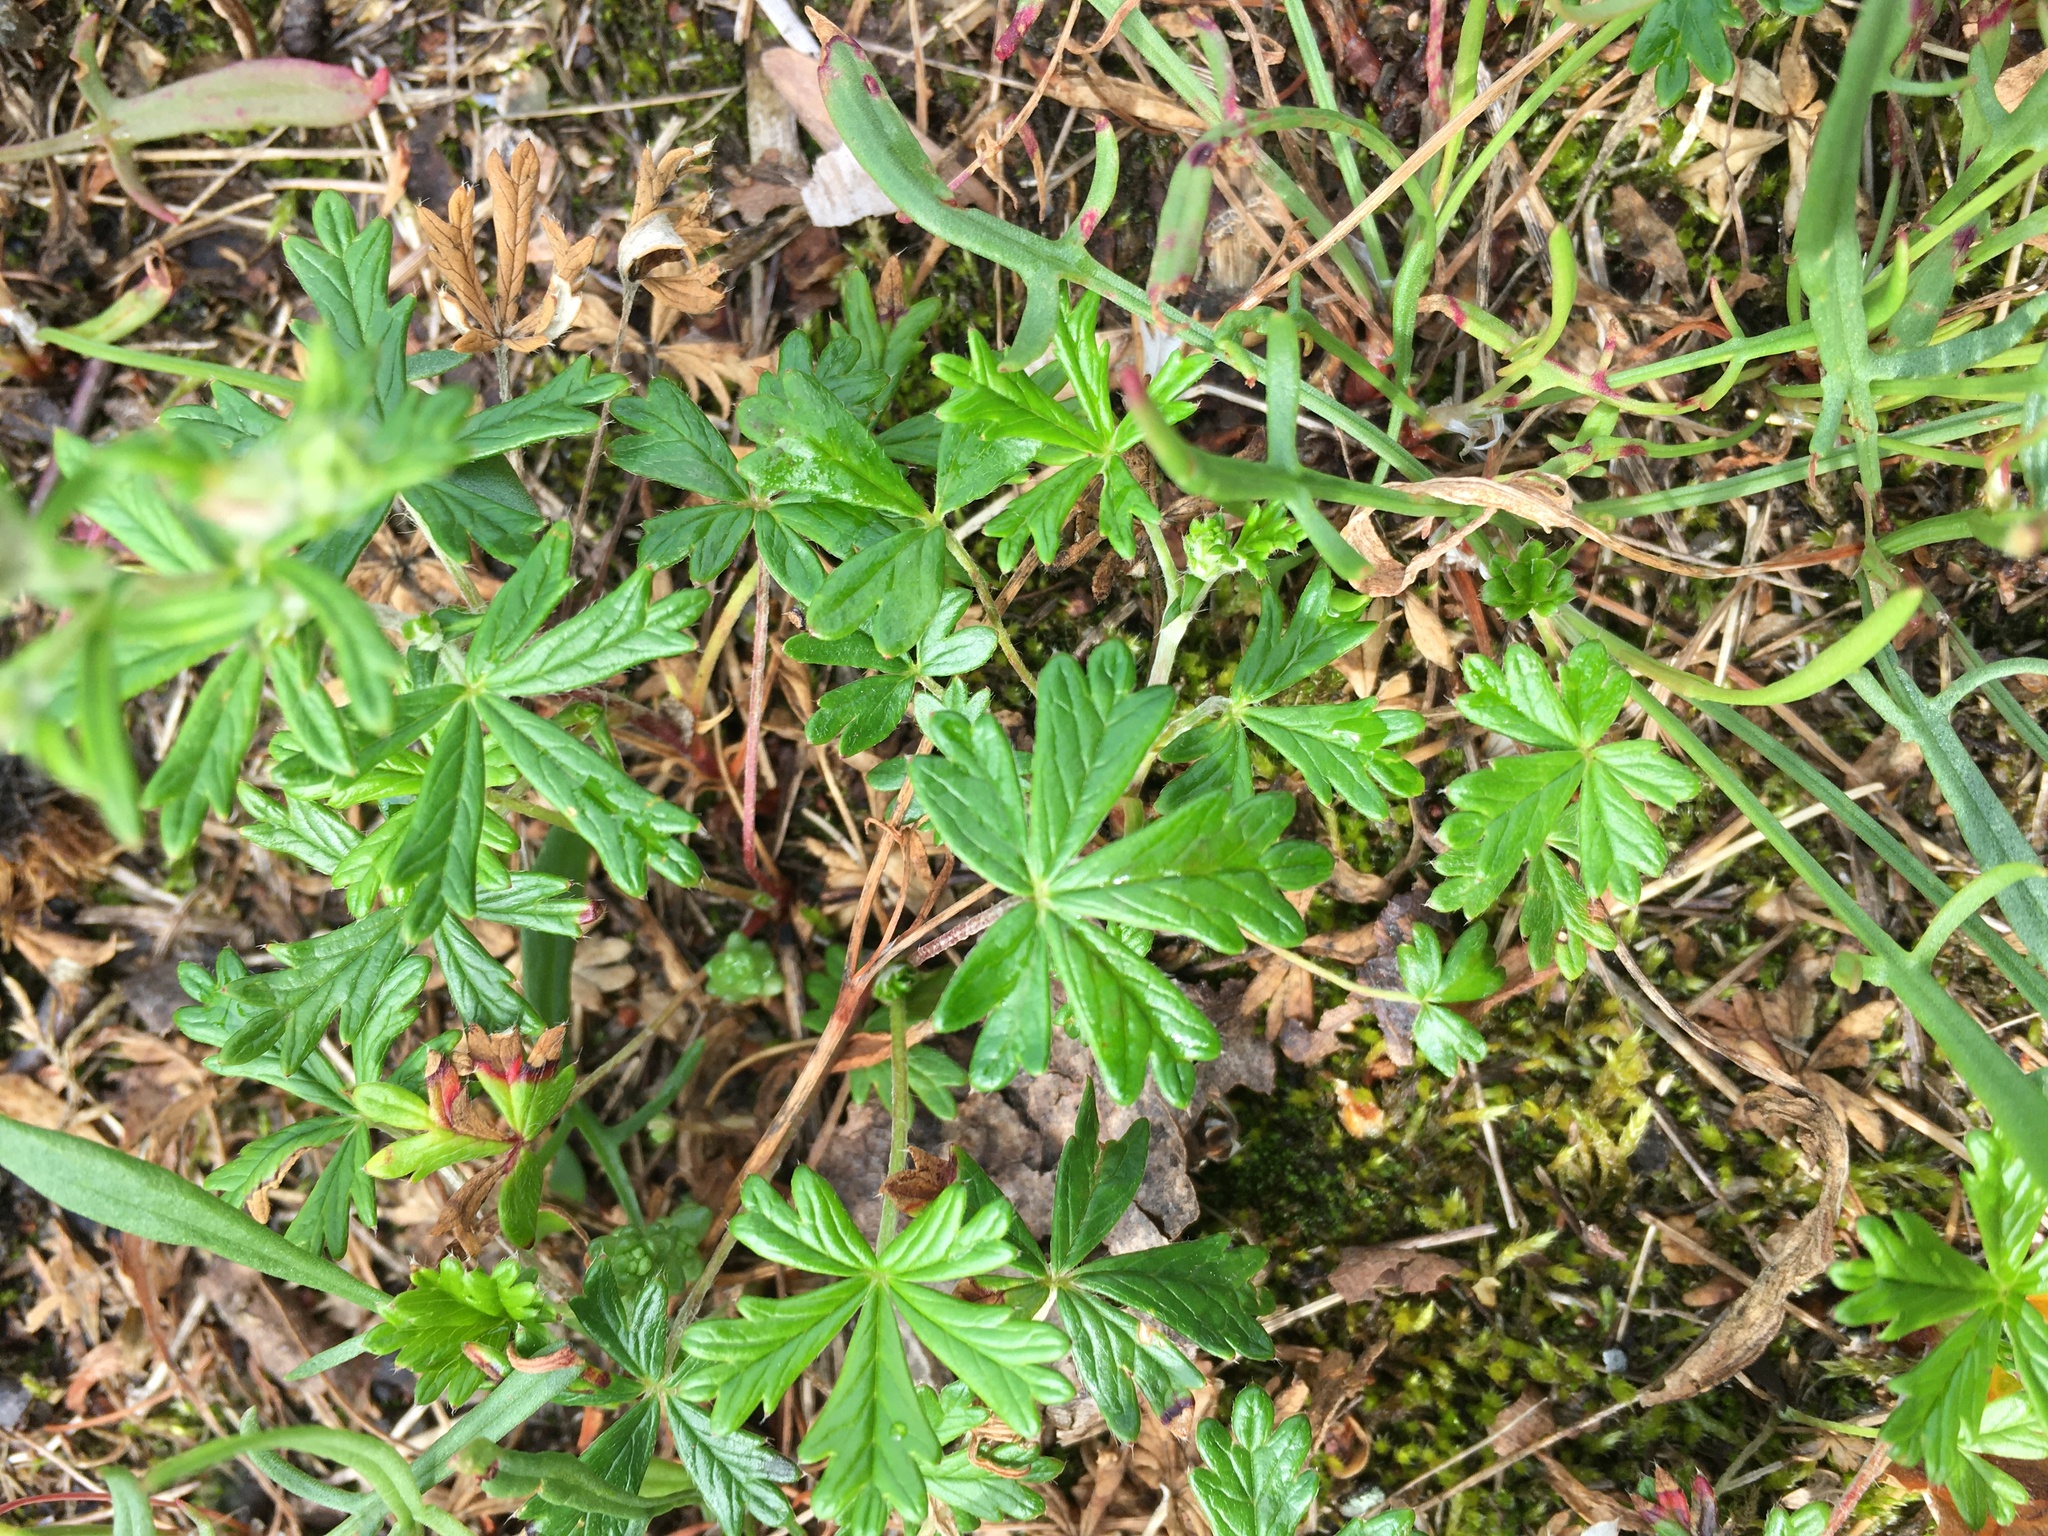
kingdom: Plantae
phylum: Tracheophyta
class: Magnoliopsida
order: Rosales
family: Rosaceae
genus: Potentilla
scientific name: Potentilla argentea
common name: Hoary cinquefoil
